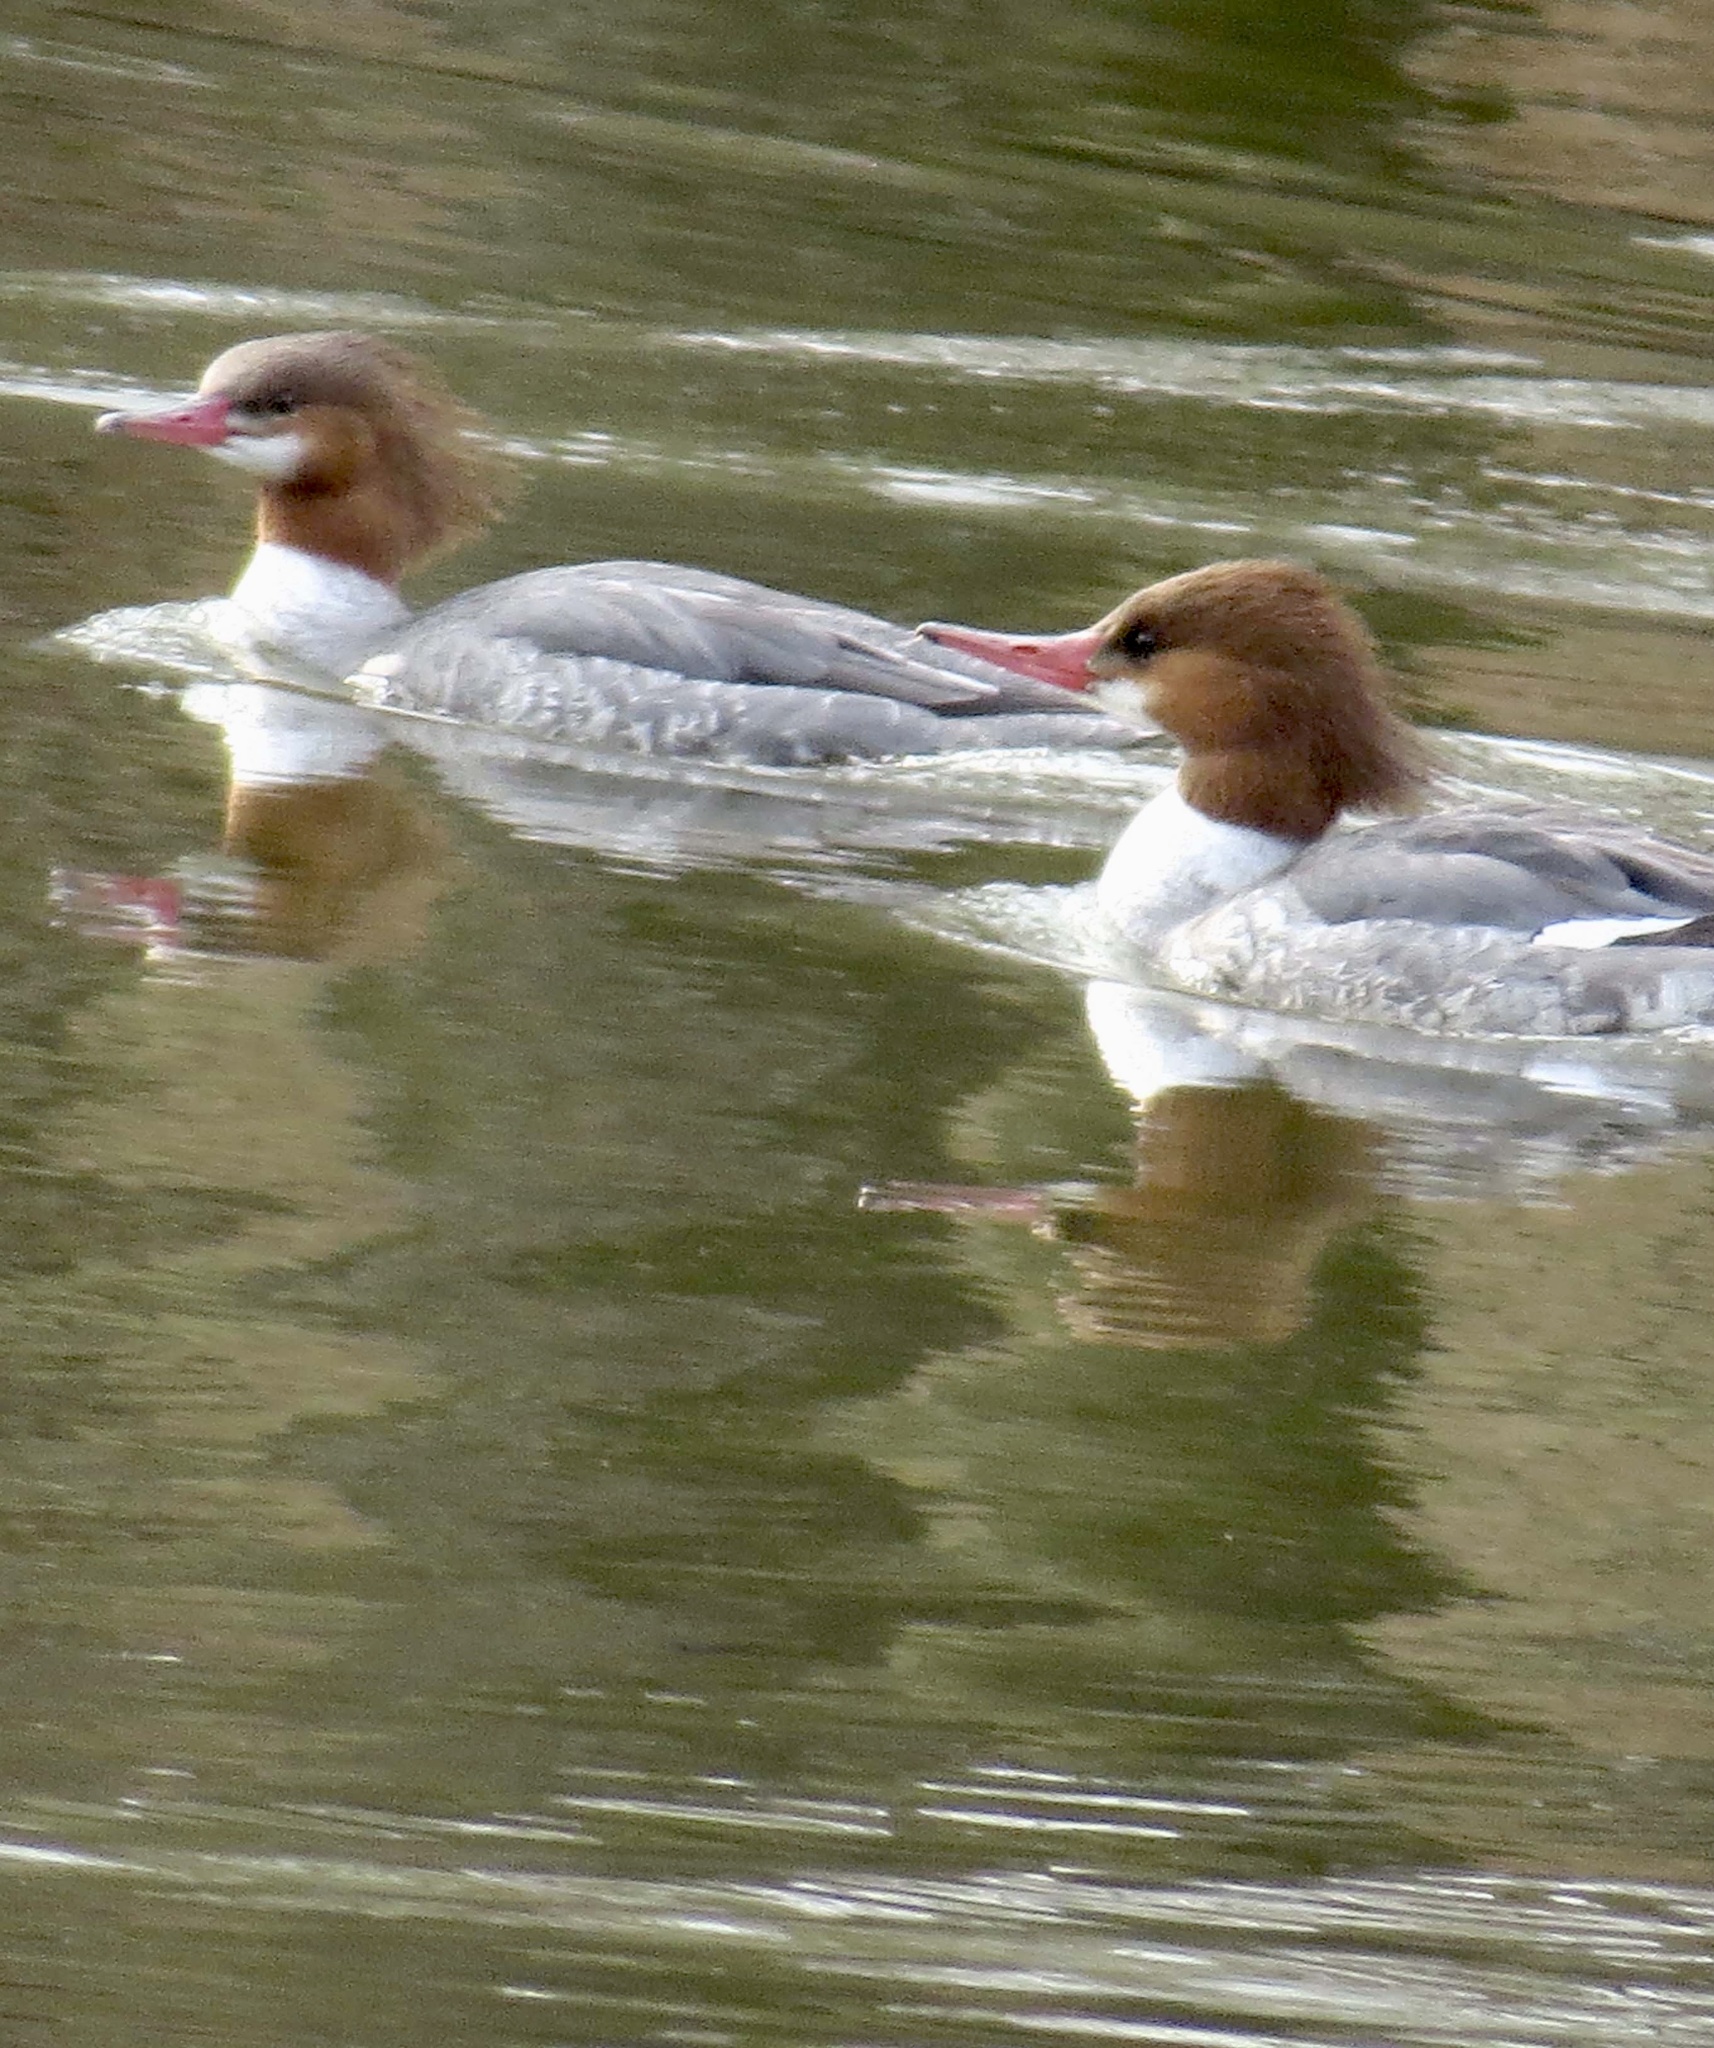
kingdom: Animalia
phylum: Chordata
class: Aves
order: Anseriformes
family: Anatidae
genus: Mergus
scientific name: Mergus merganser
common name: Common merganser
